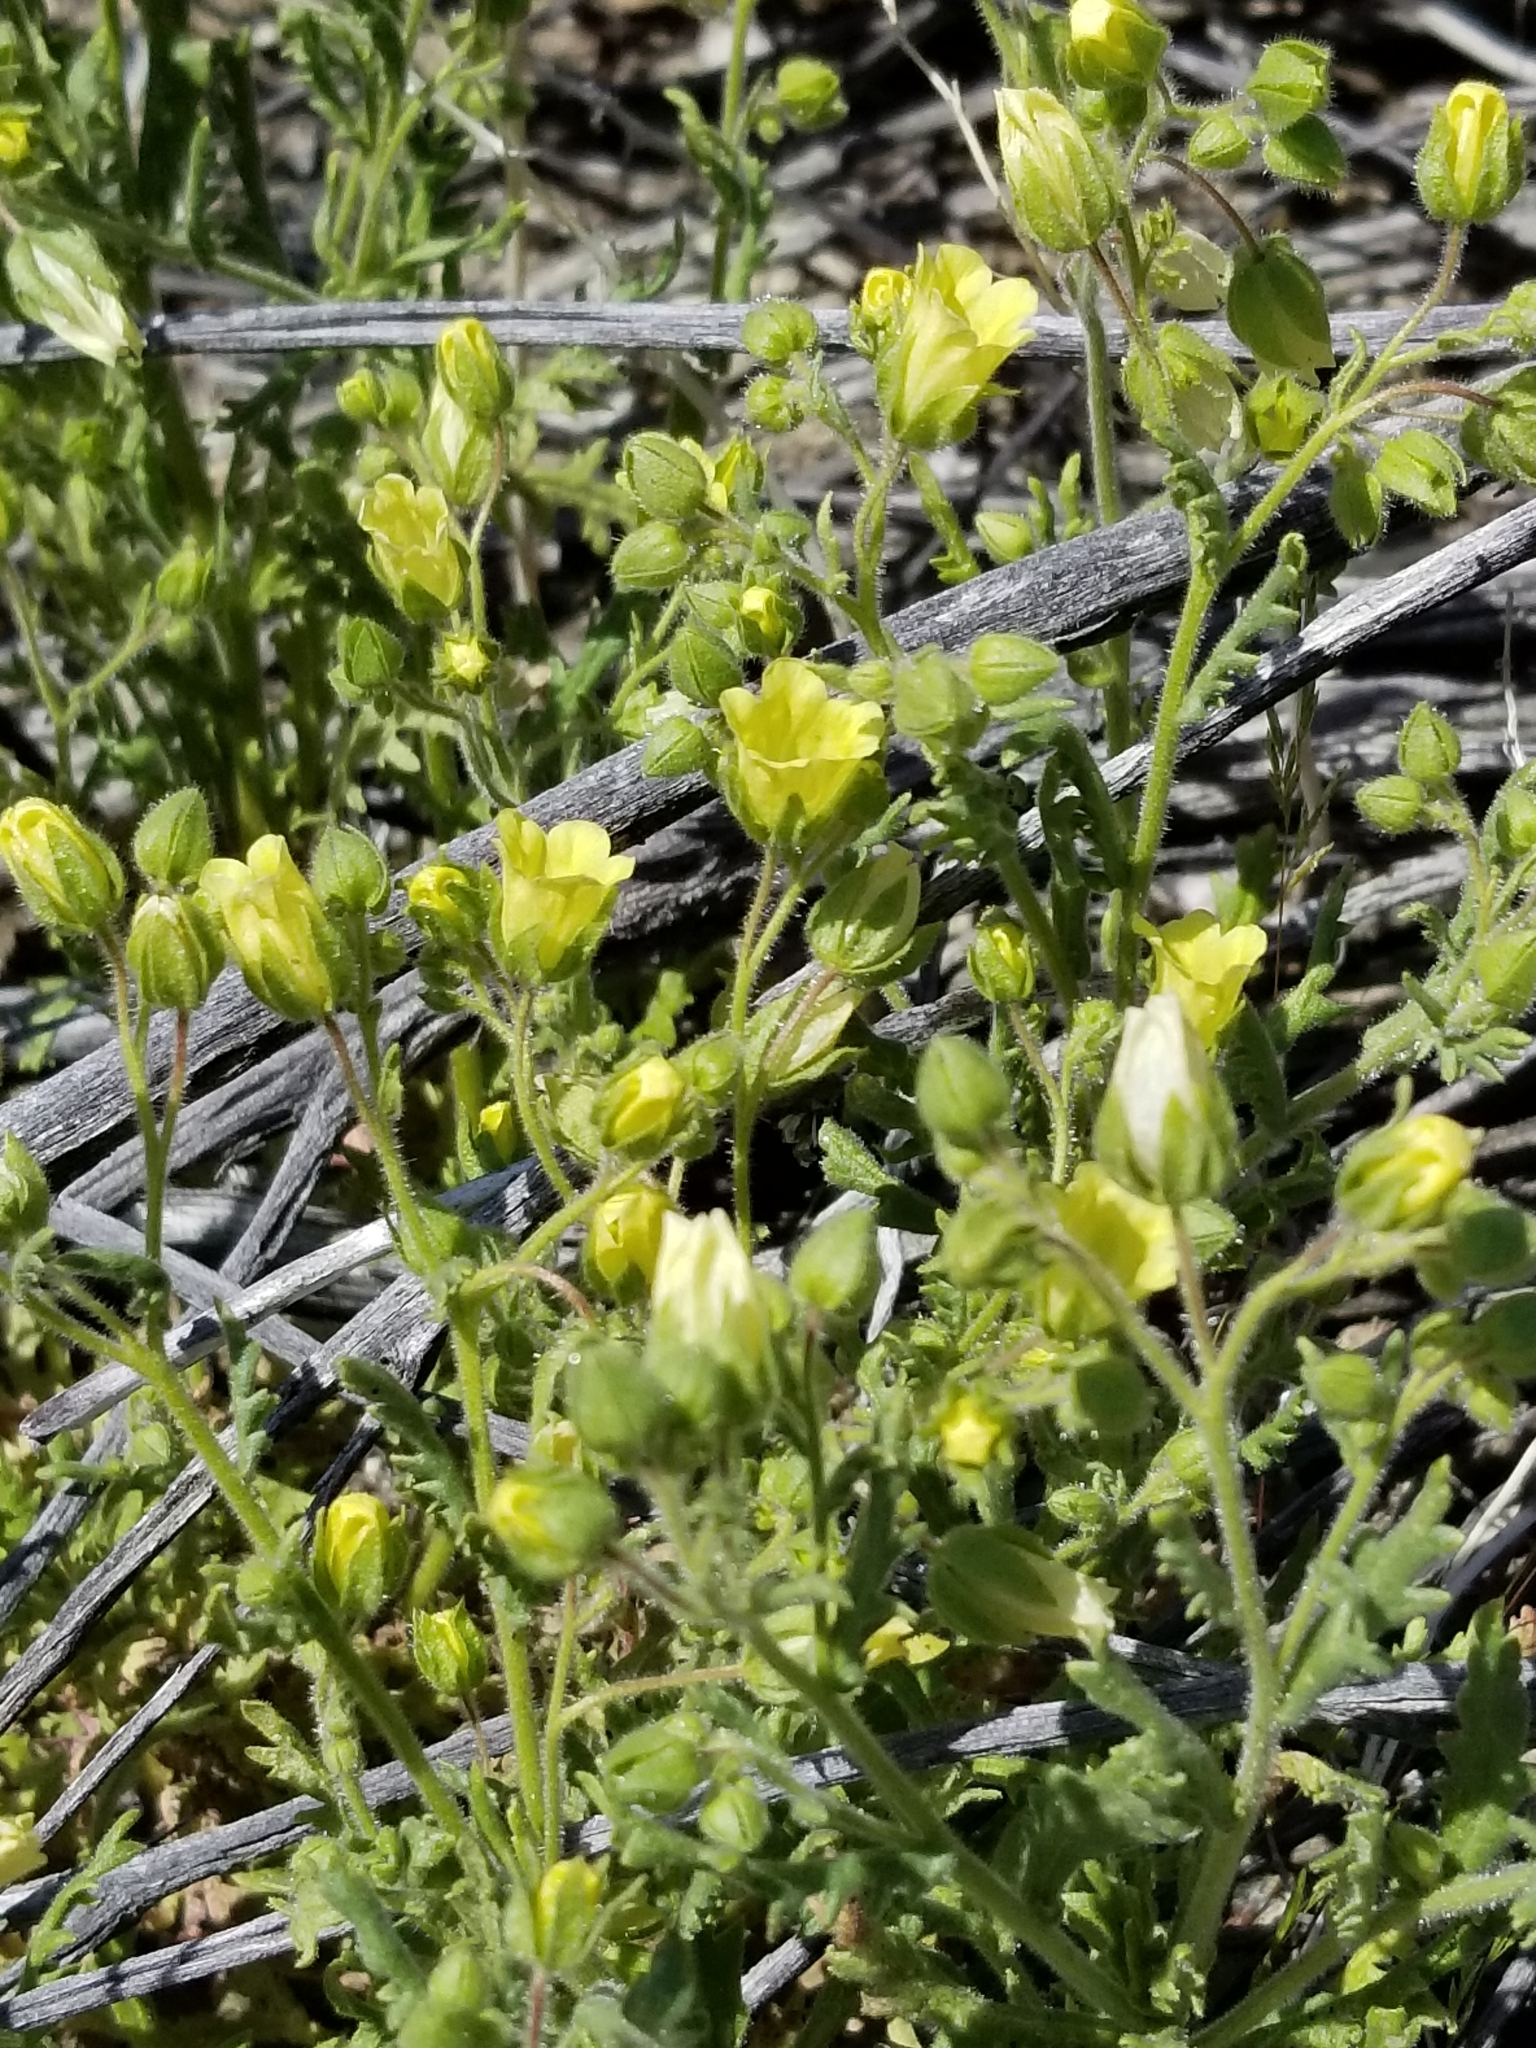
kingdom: Plantae
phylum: Tracheophyta
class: Magnoliopsida
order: Boraginales
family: Hydrophyllaceae
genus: Emmenanthe
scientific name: Emmenanthe penduliflora
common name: Whispering-bells
